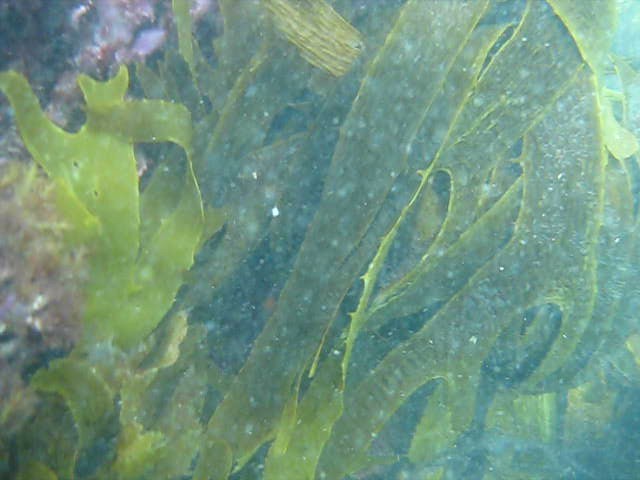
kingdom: Chromista
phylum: Ochrophyta
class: Phaeophyceae
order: Laminariales
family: Lessoniaceae
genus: Ecklonia
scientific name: Ecklonia radiata
